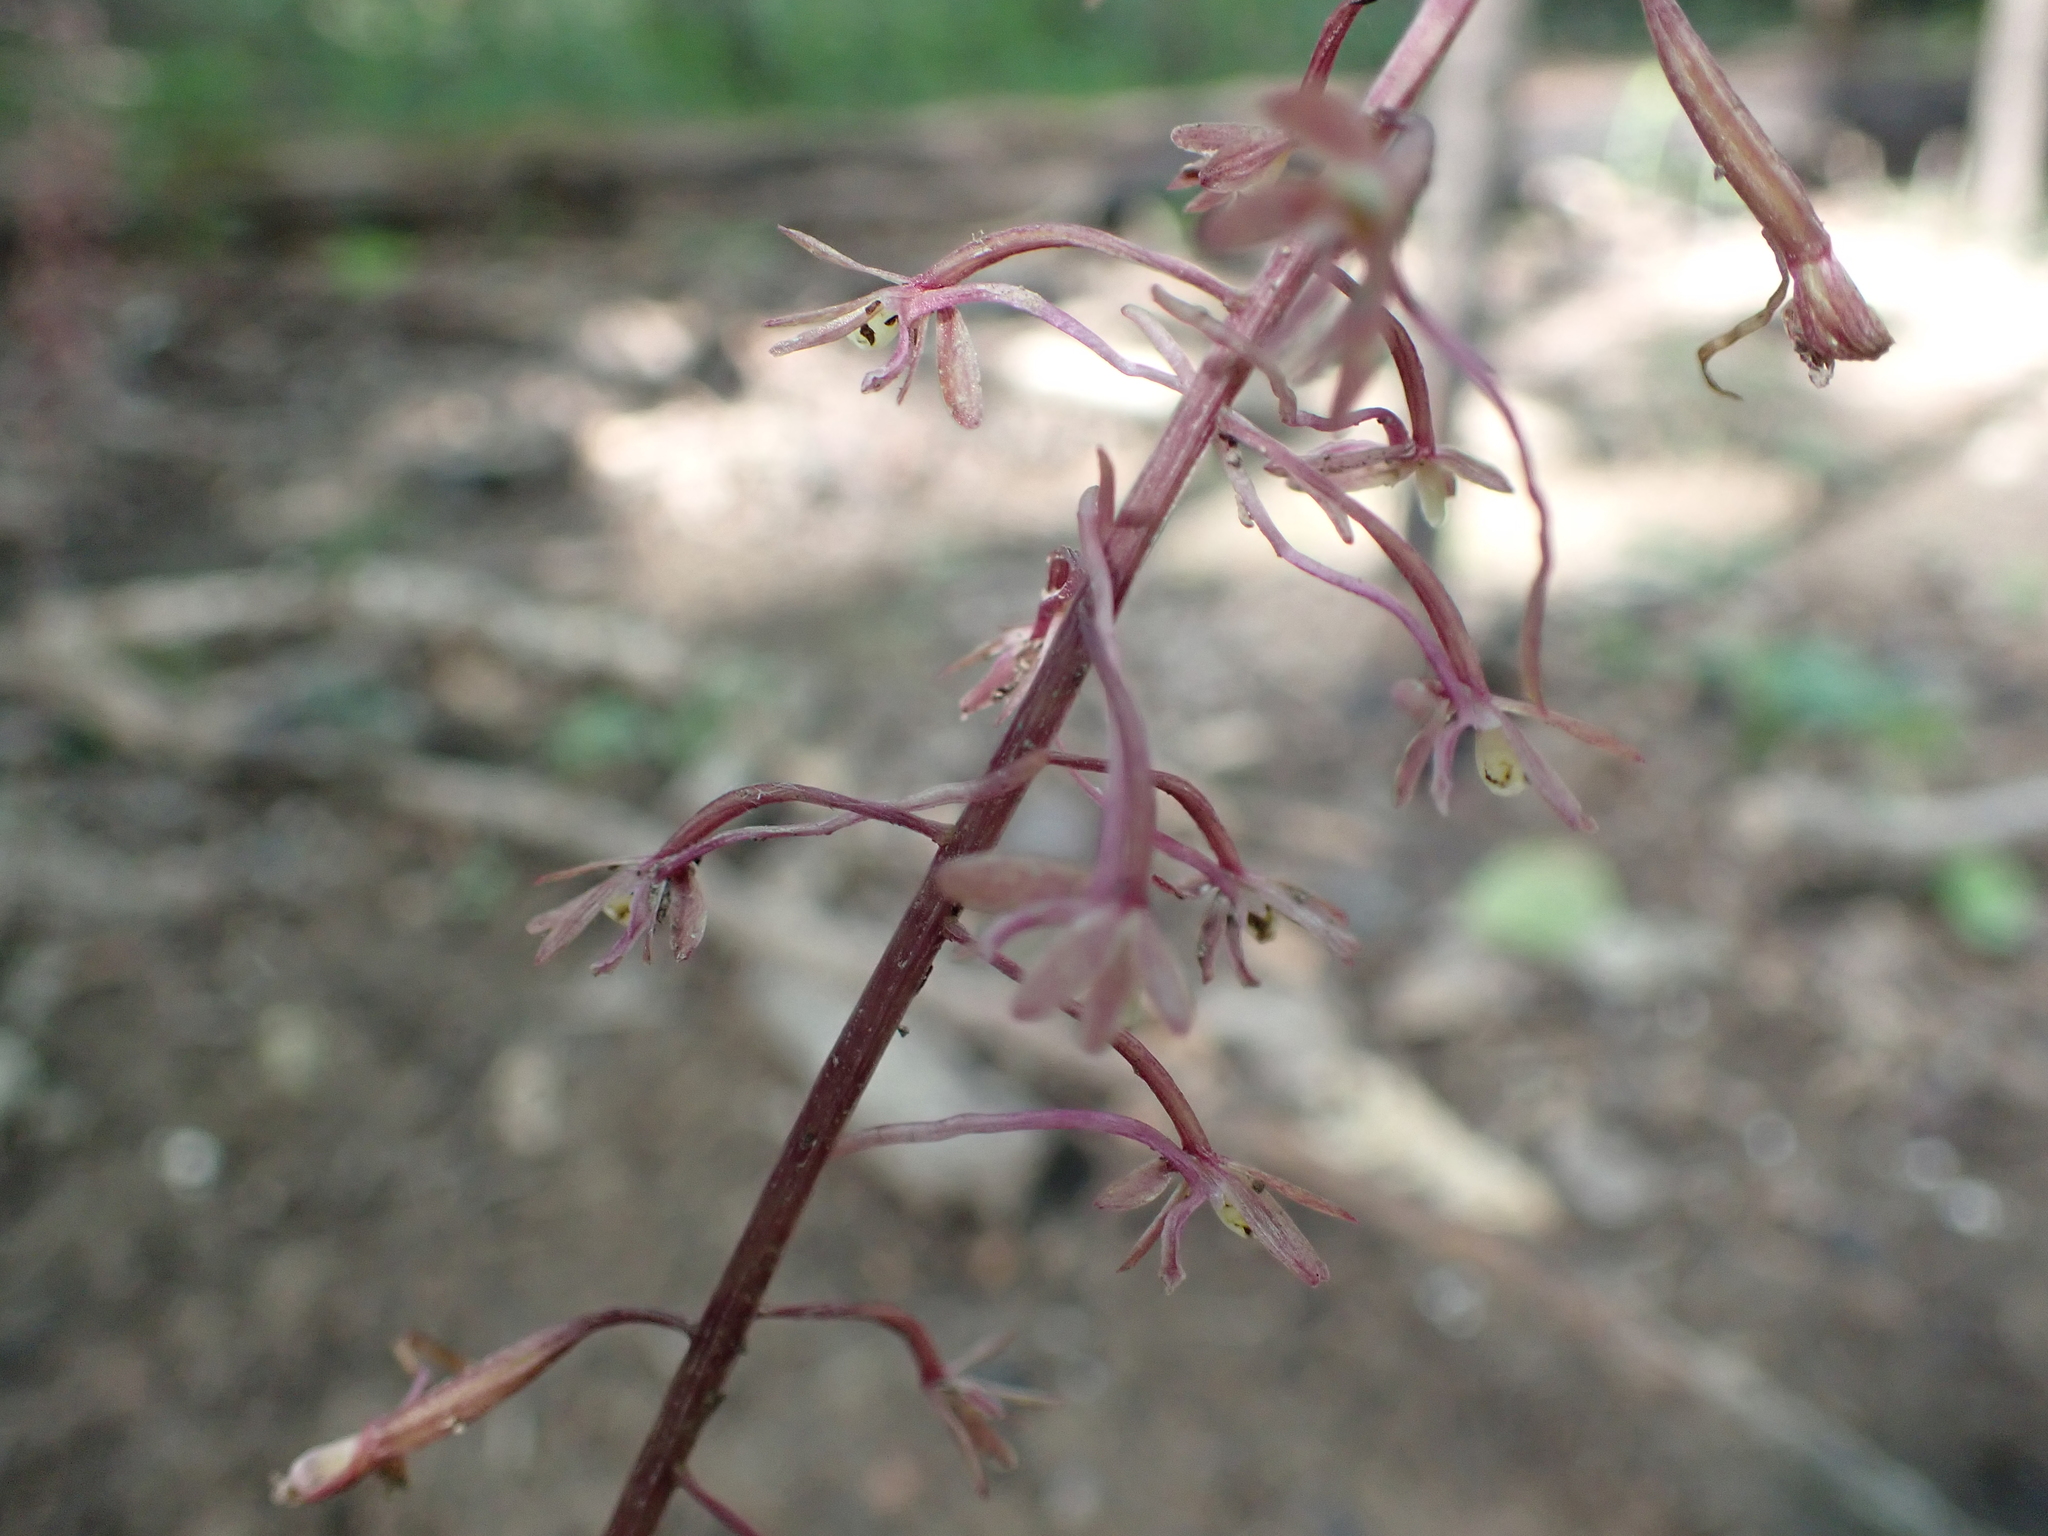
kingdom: Plantae
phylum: Tracheophyta
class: Liliopsida
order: Asparagales
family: Orchidaceae
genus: Tipularia
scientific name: Tipularia discolor
